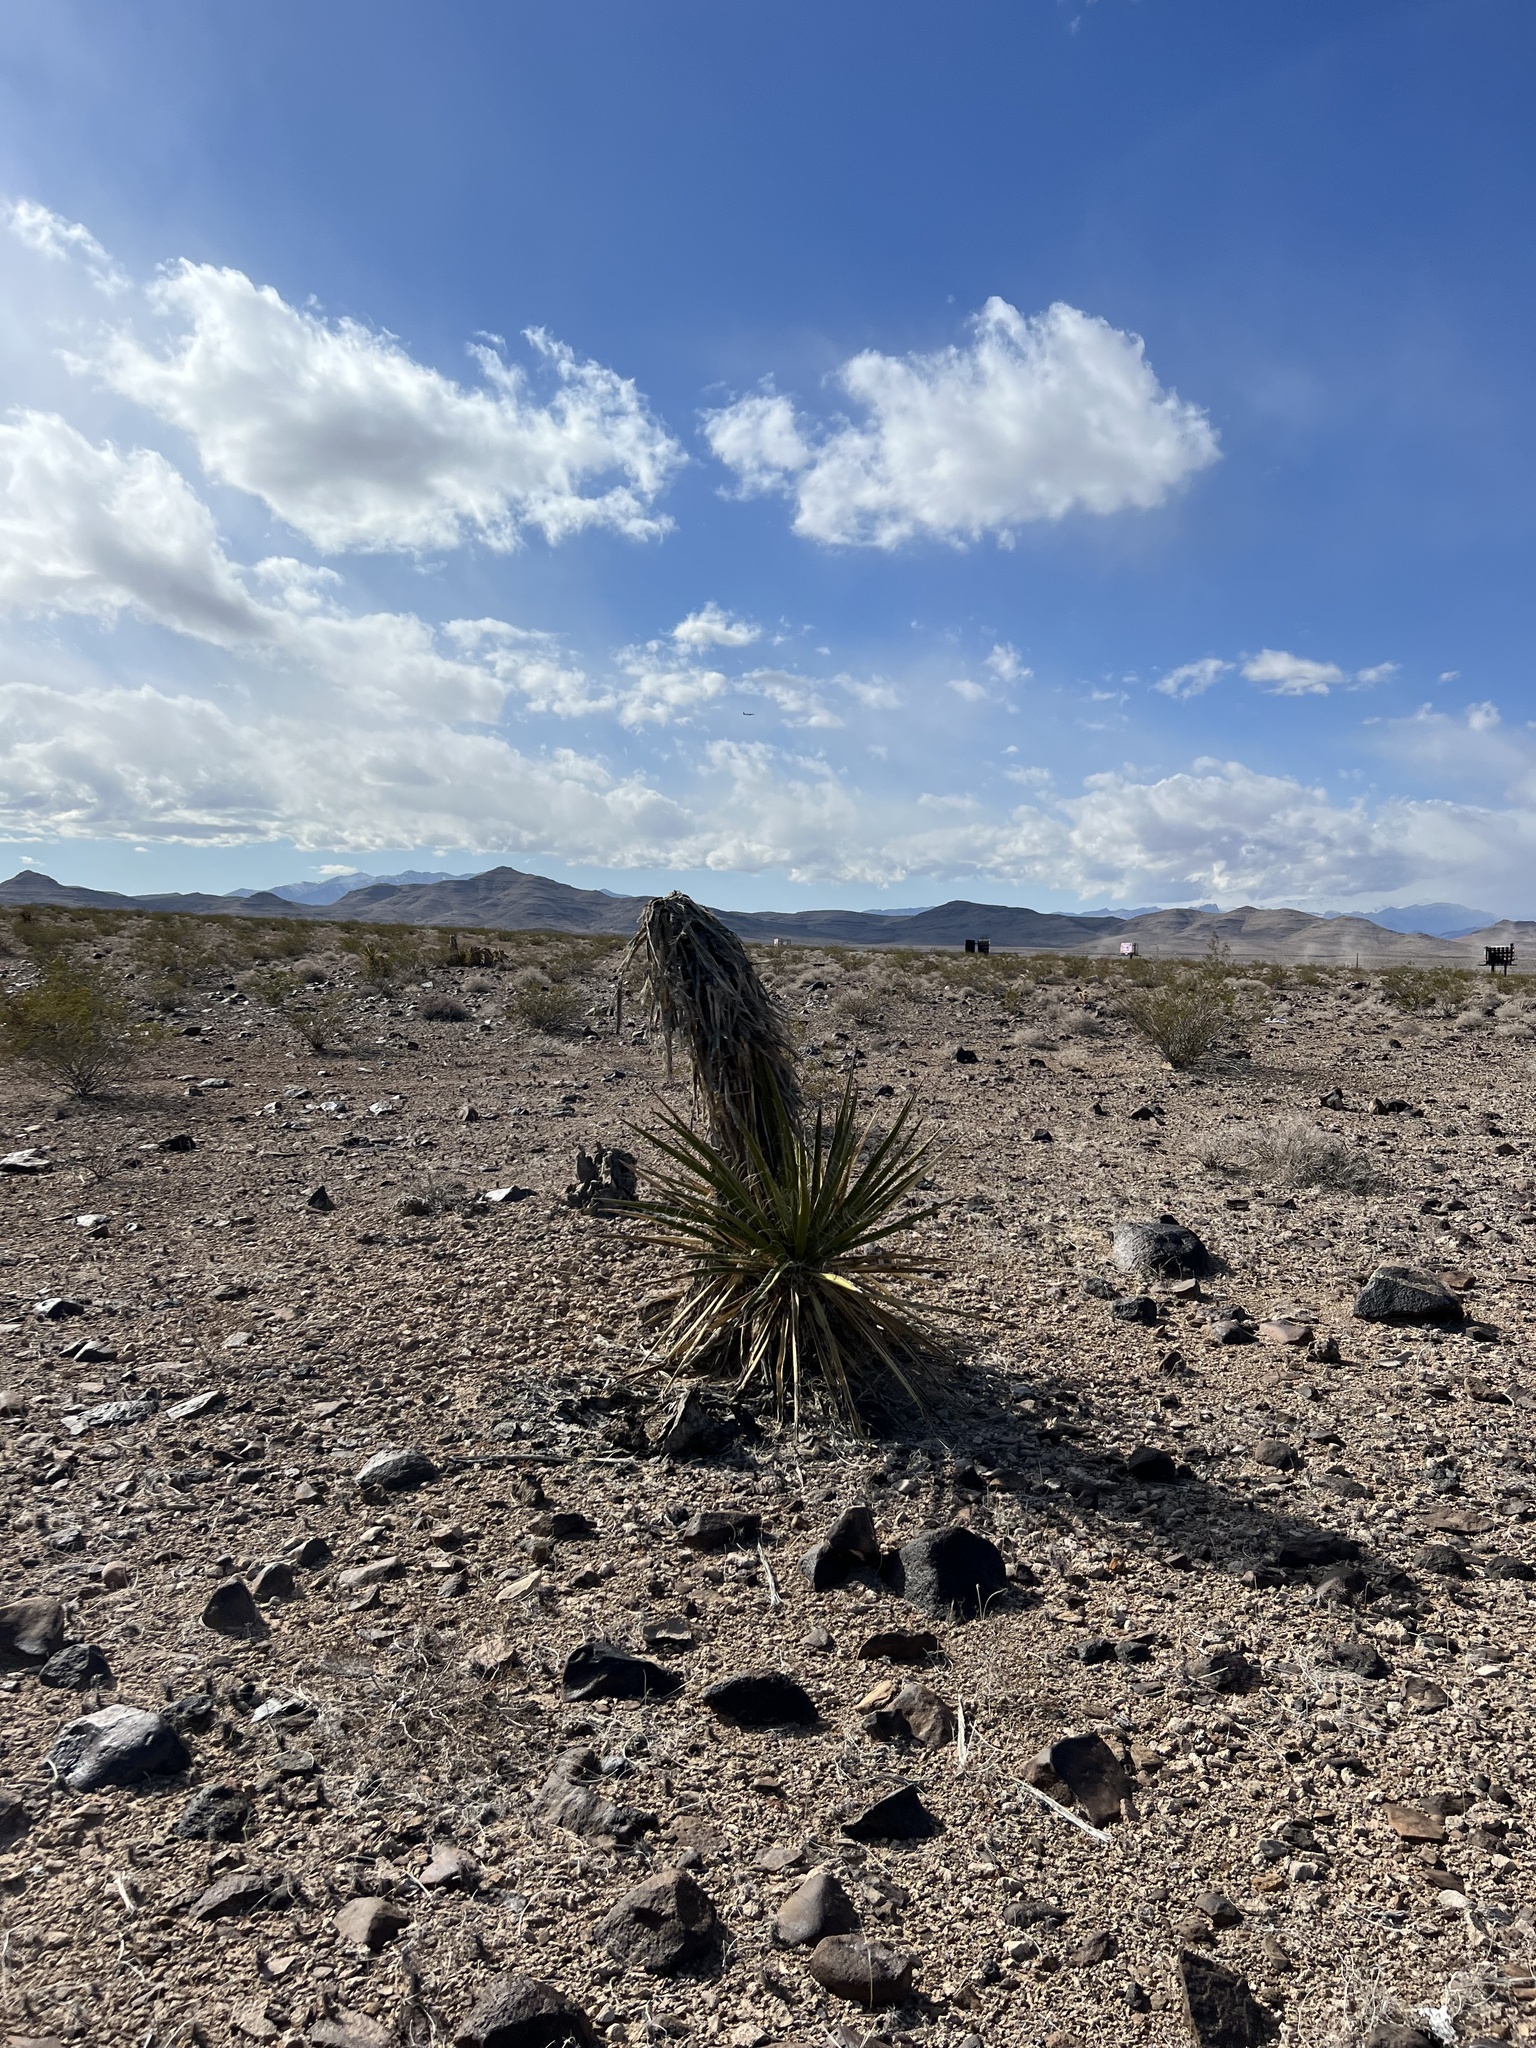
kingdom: Plantae
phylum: Tracheophyta
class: Liliopsida
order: Asparagales
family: Asparagaceae
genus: Yucca
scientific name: Yucca schidigera
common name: Mojave yucca
